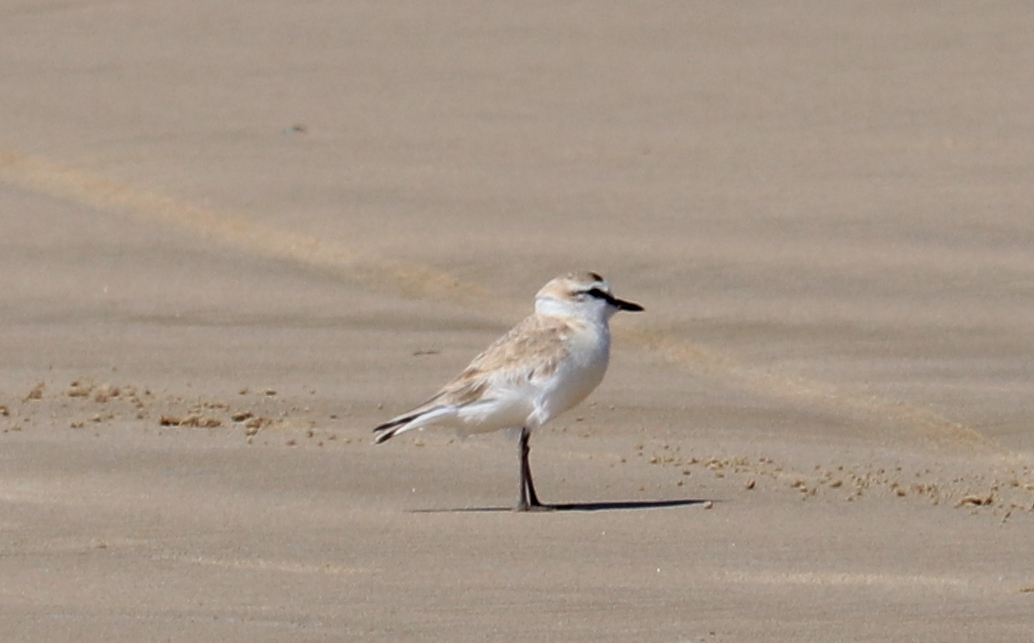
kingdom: Animalia
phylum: Chordata
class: Aves
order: Charadriiformes
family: Charadriidae
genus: Anarhynchus
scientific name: Anarhynchus
